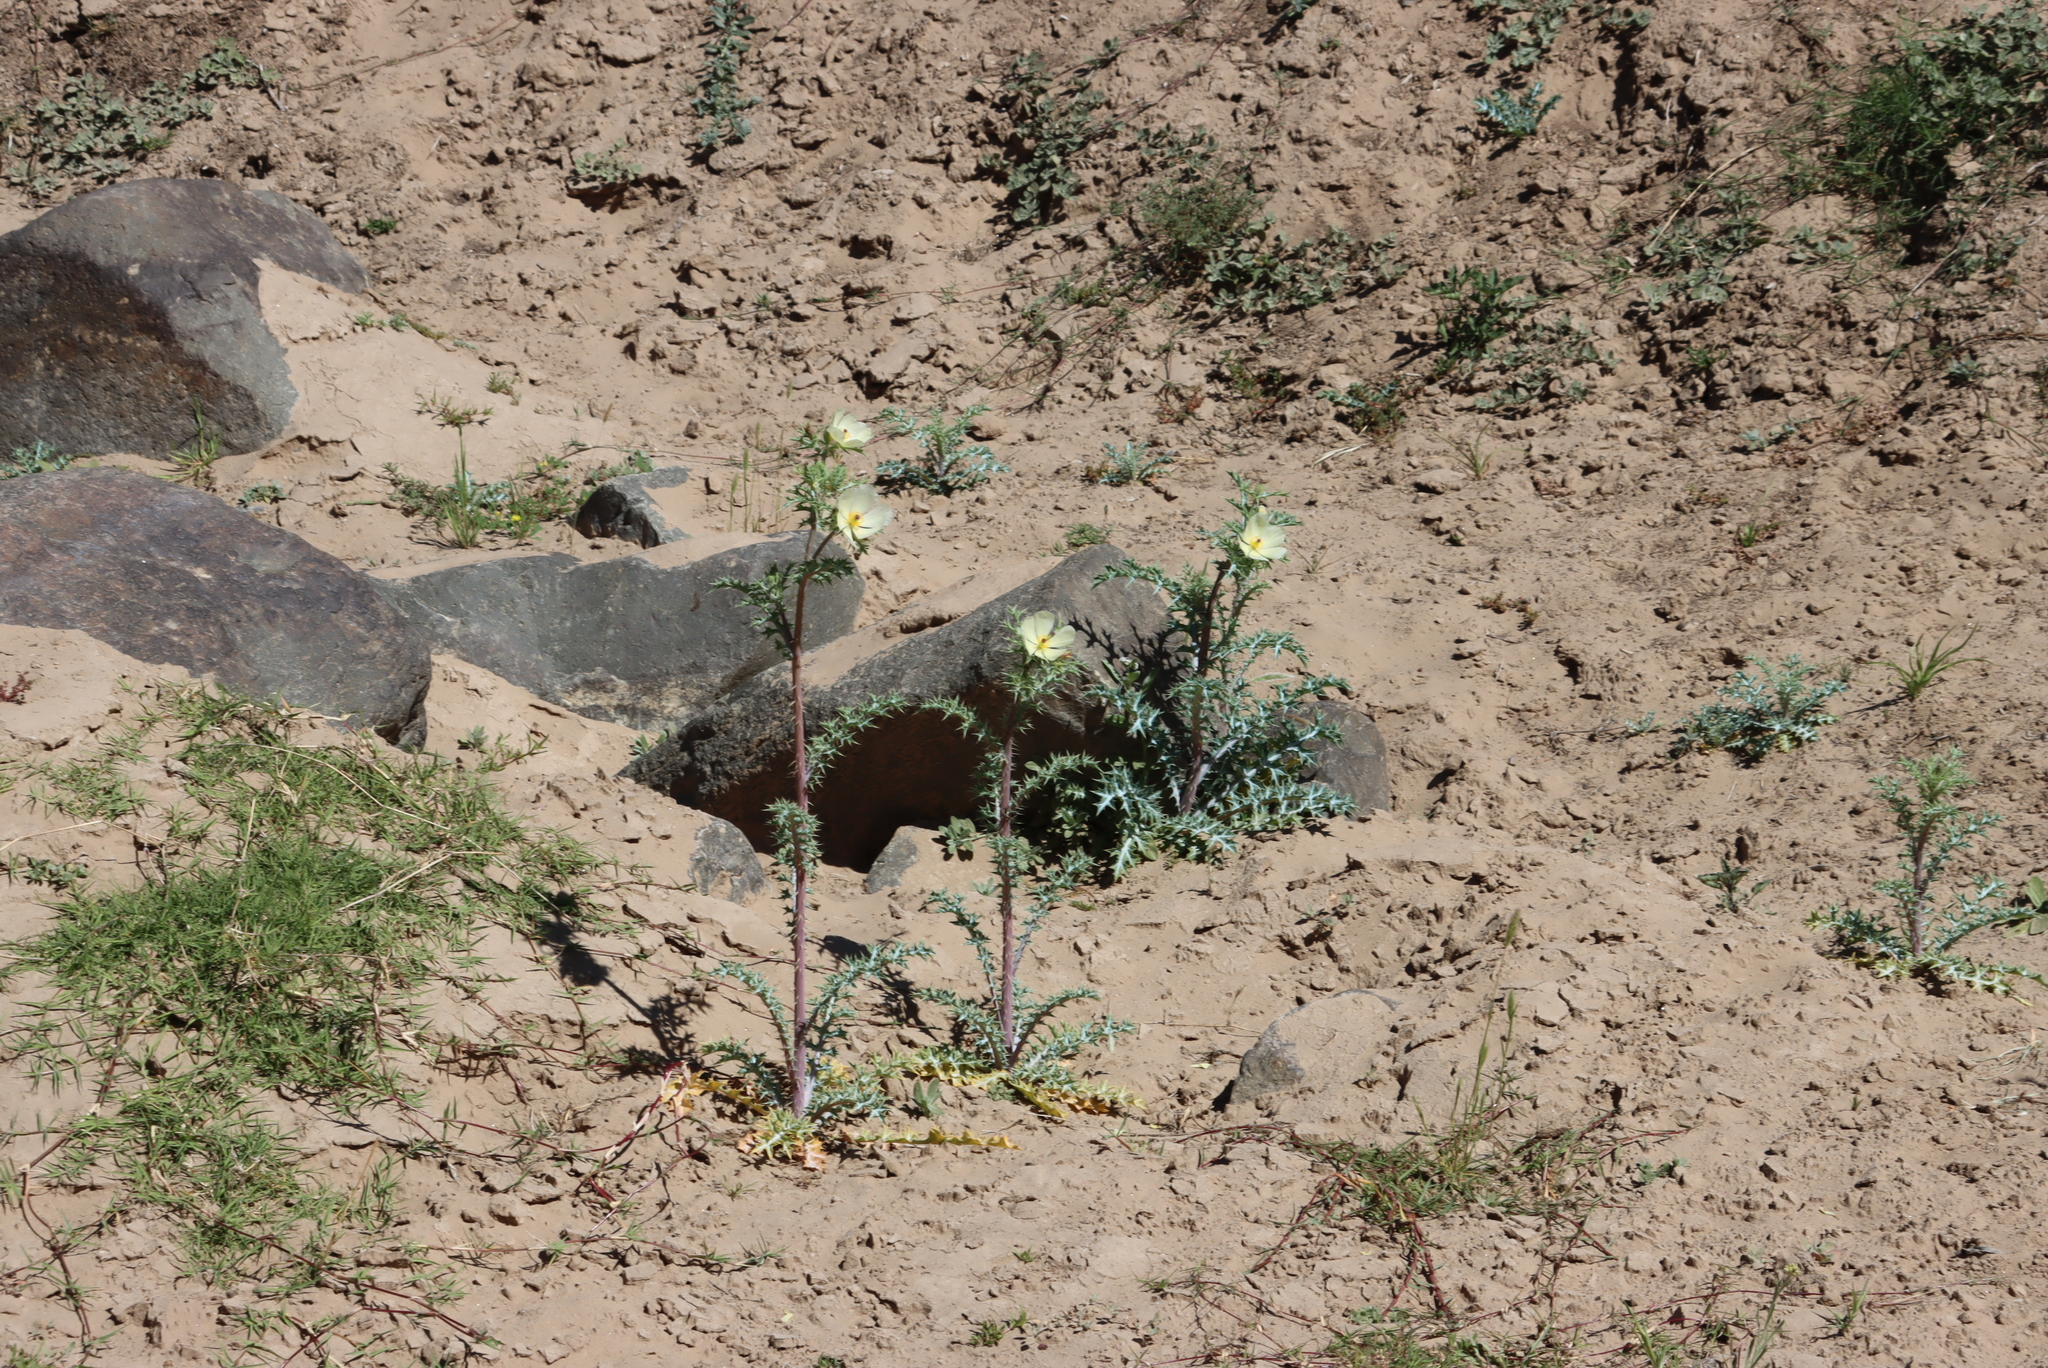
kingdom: Plantae
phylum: Tracheophyta
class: Magnoliopsida
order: Ranunculales
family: Papaveraceae
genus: Argemone
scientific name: Argemone ochroleuca
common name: White-flower mexican-poppy
